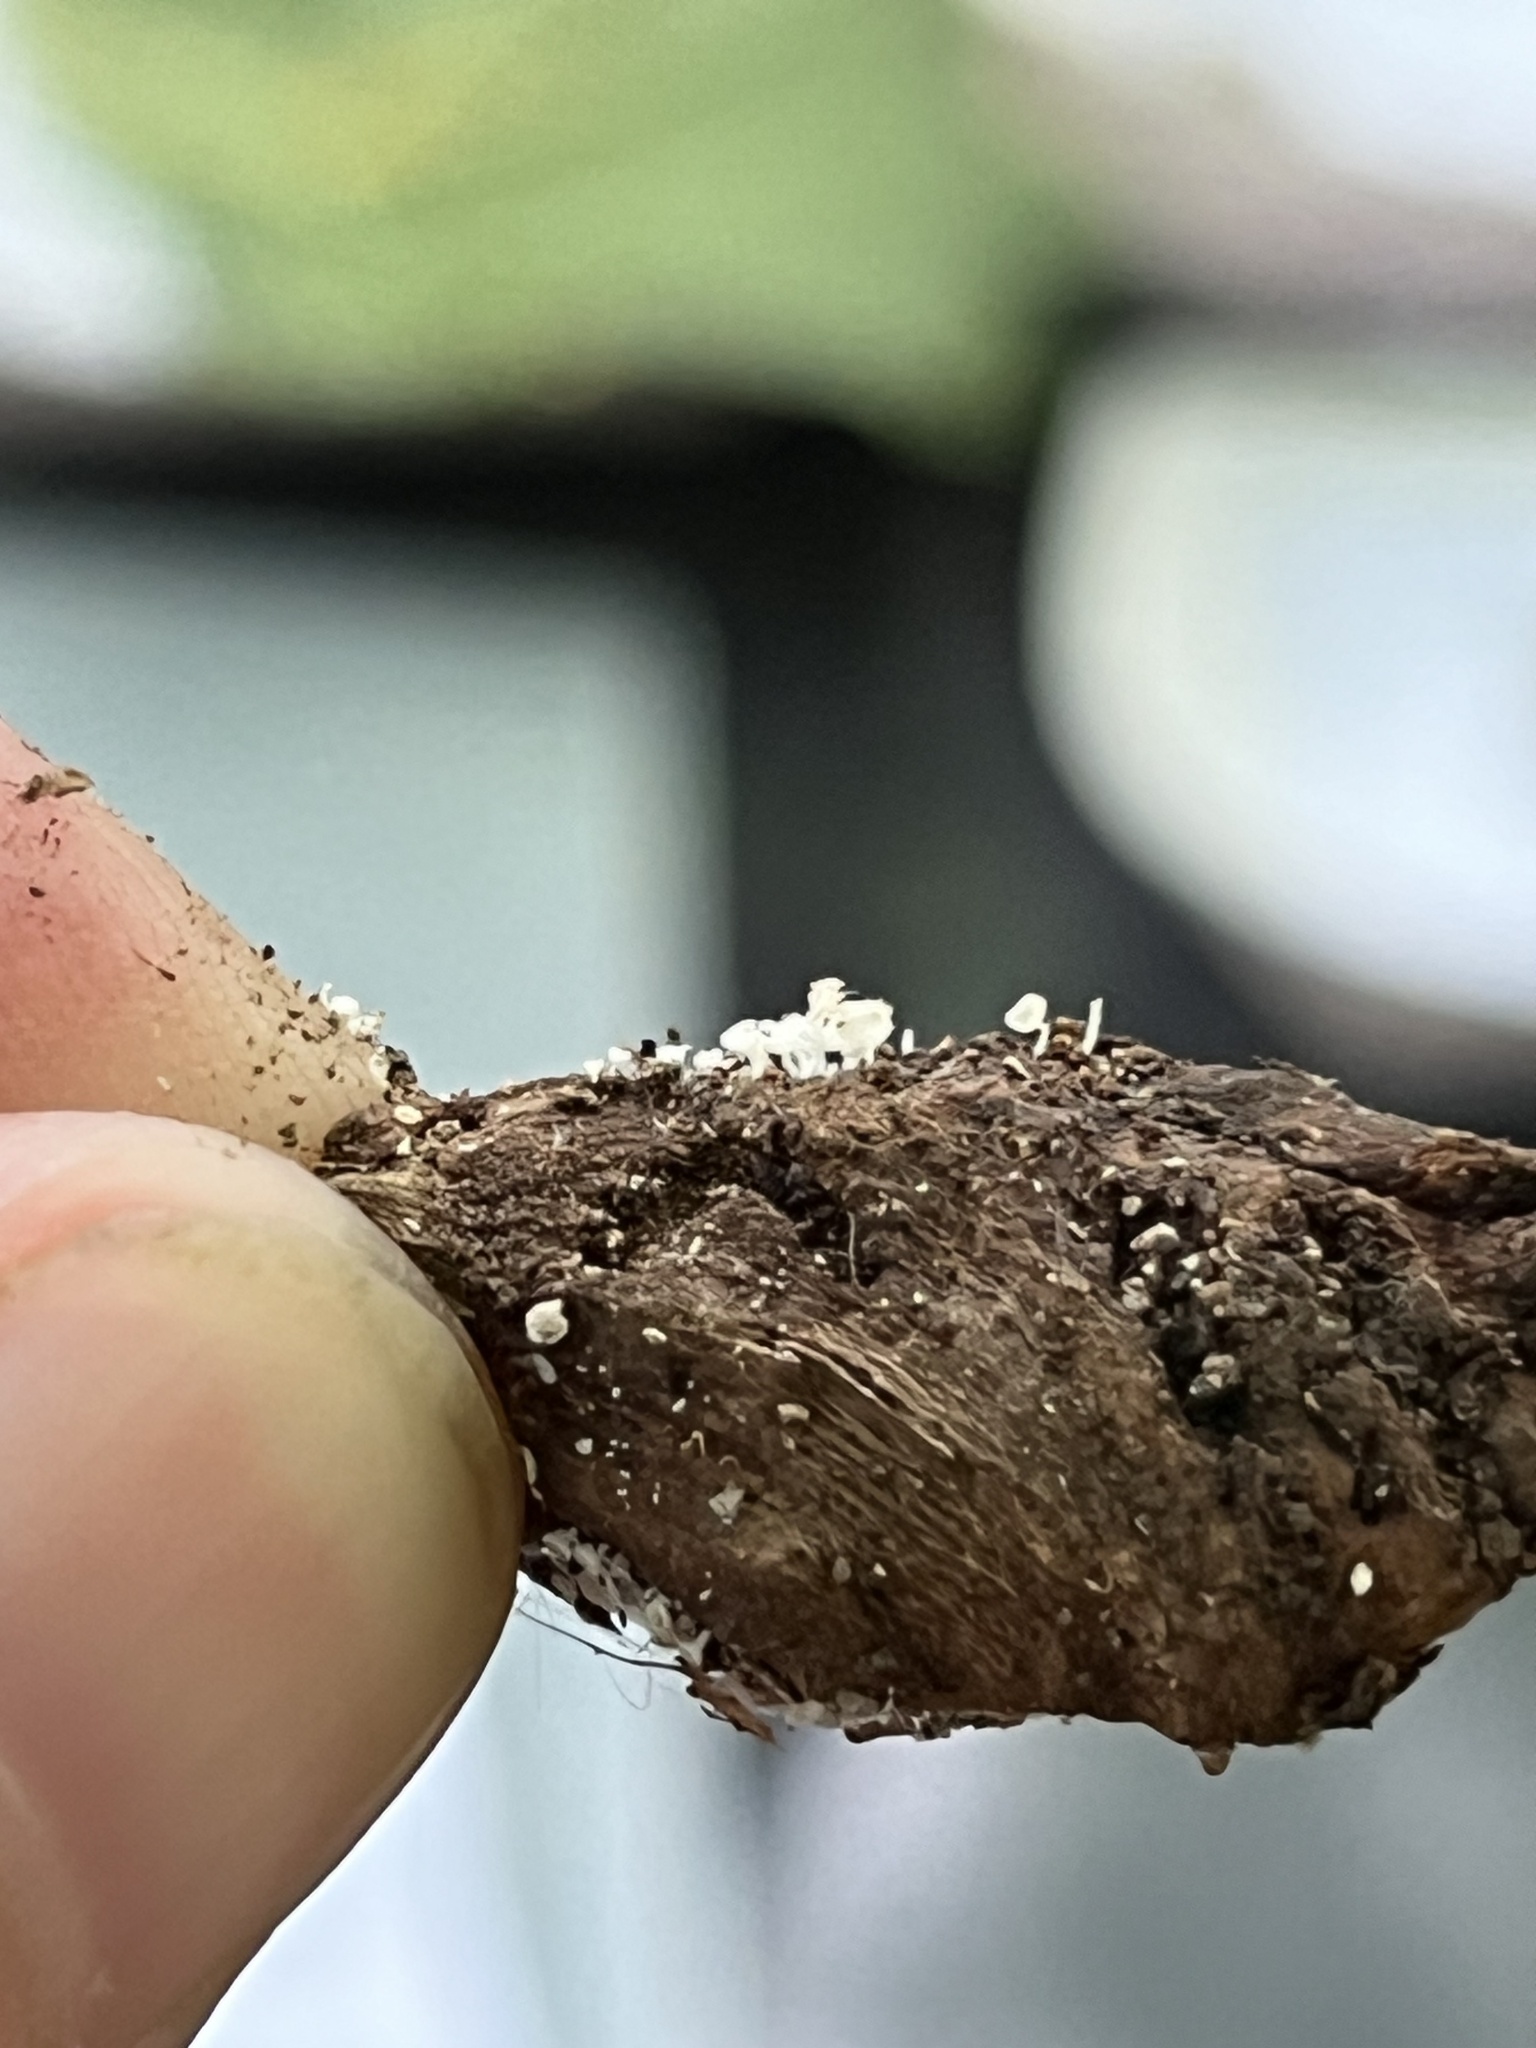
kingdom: Fungi
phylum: Ascomycota
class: Leotiomycetes
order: Helotiales
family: Lachnaceae
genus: Lachnum
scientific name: Lachnum virgineum
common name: Snowy disco
